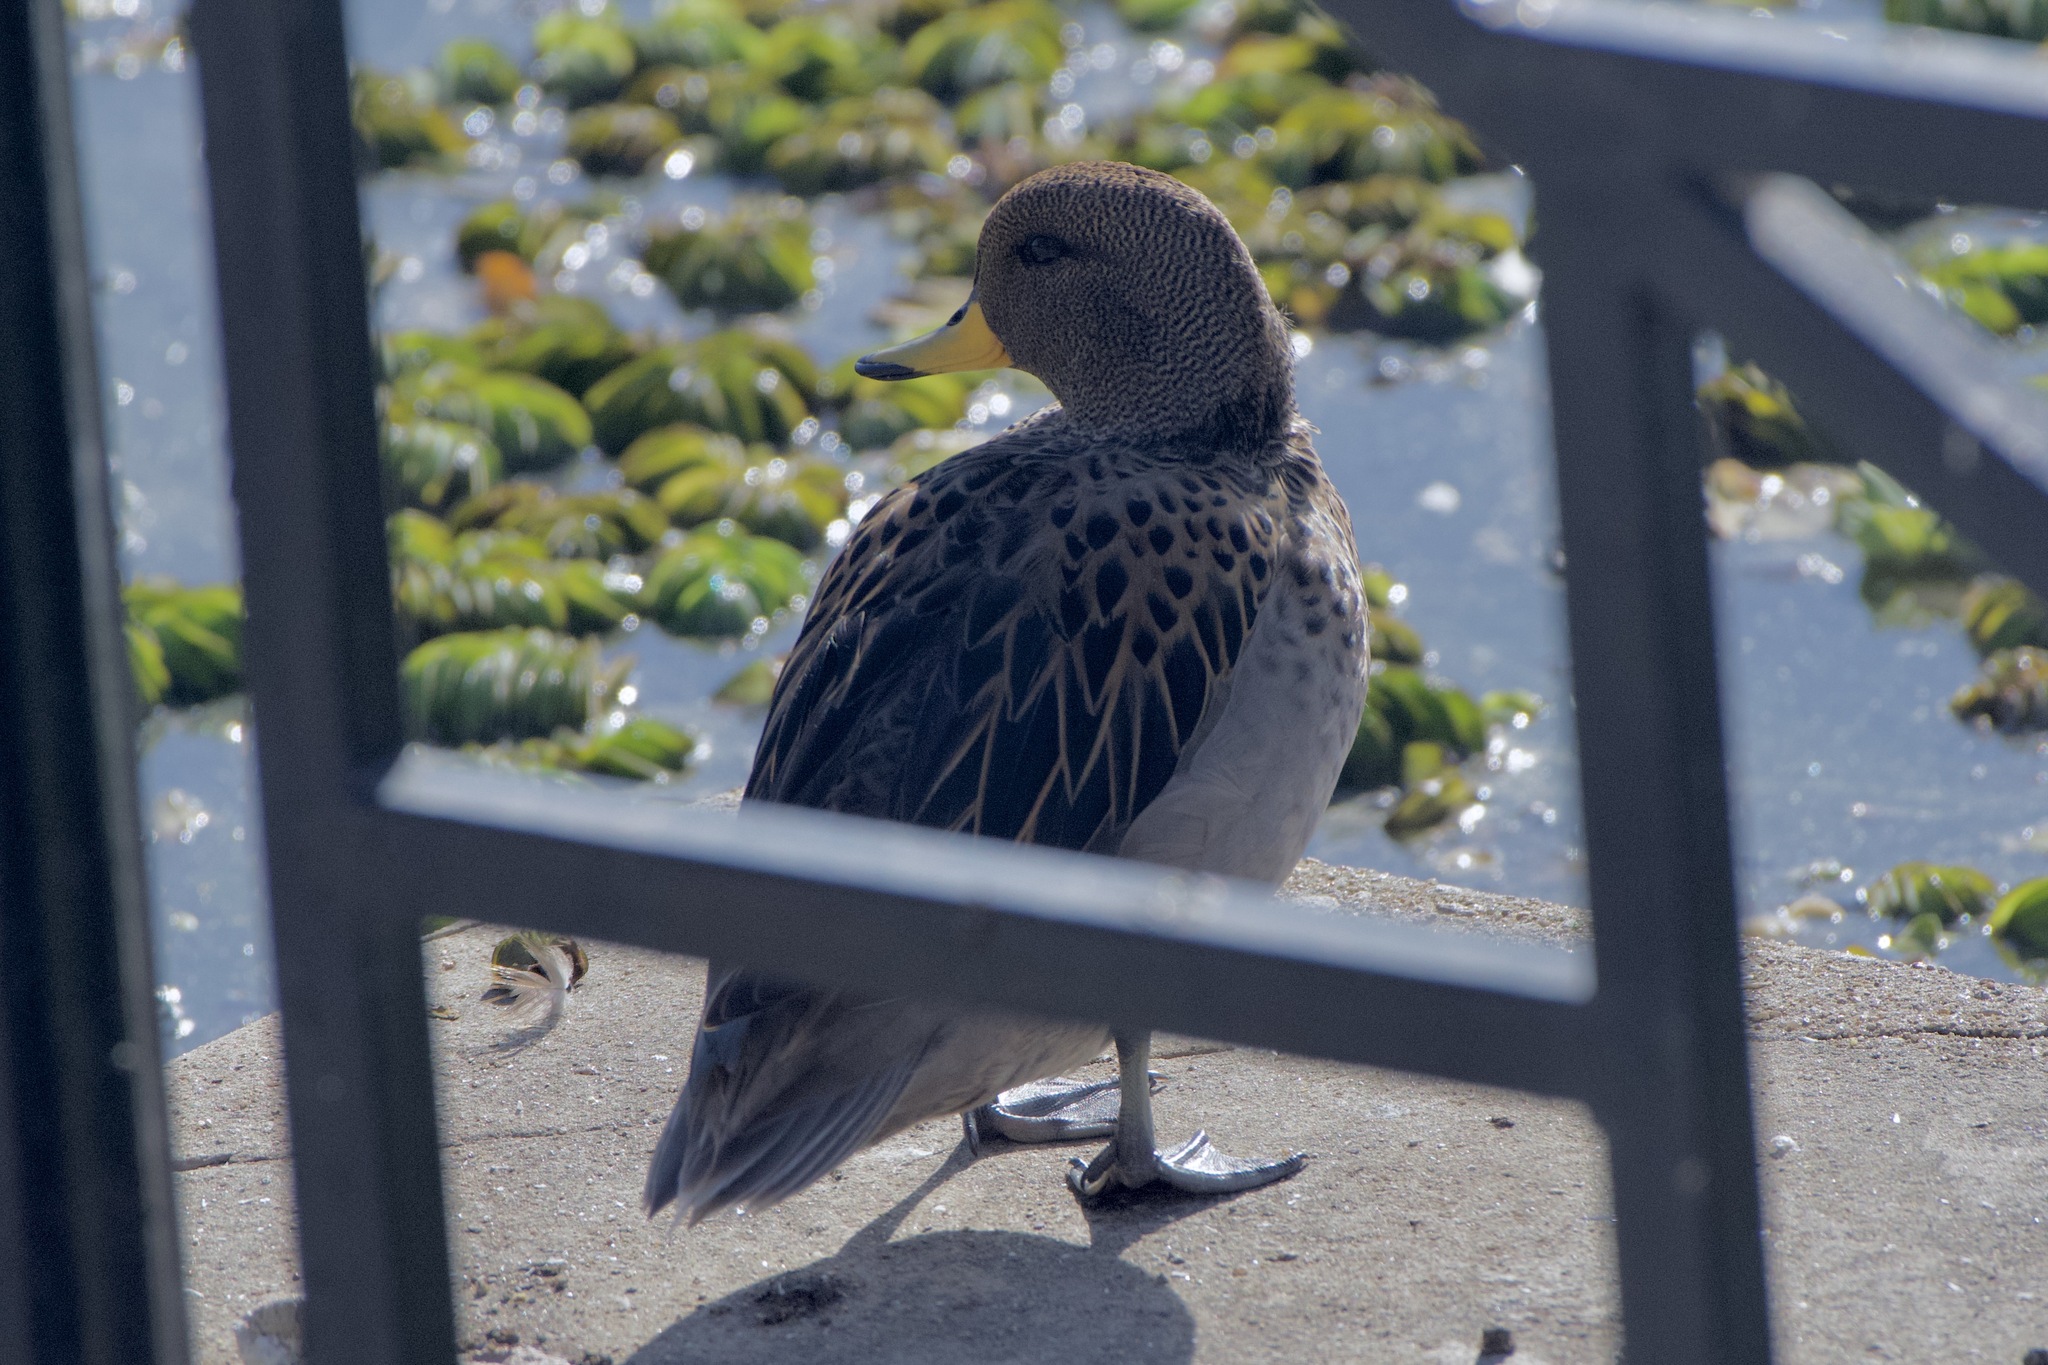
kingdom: Animalia
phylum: Chordata
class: Aves
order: Anseriformes
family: Anatidae
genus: Anas
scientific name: Anas flavirostris
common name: Yellow-billed teal
